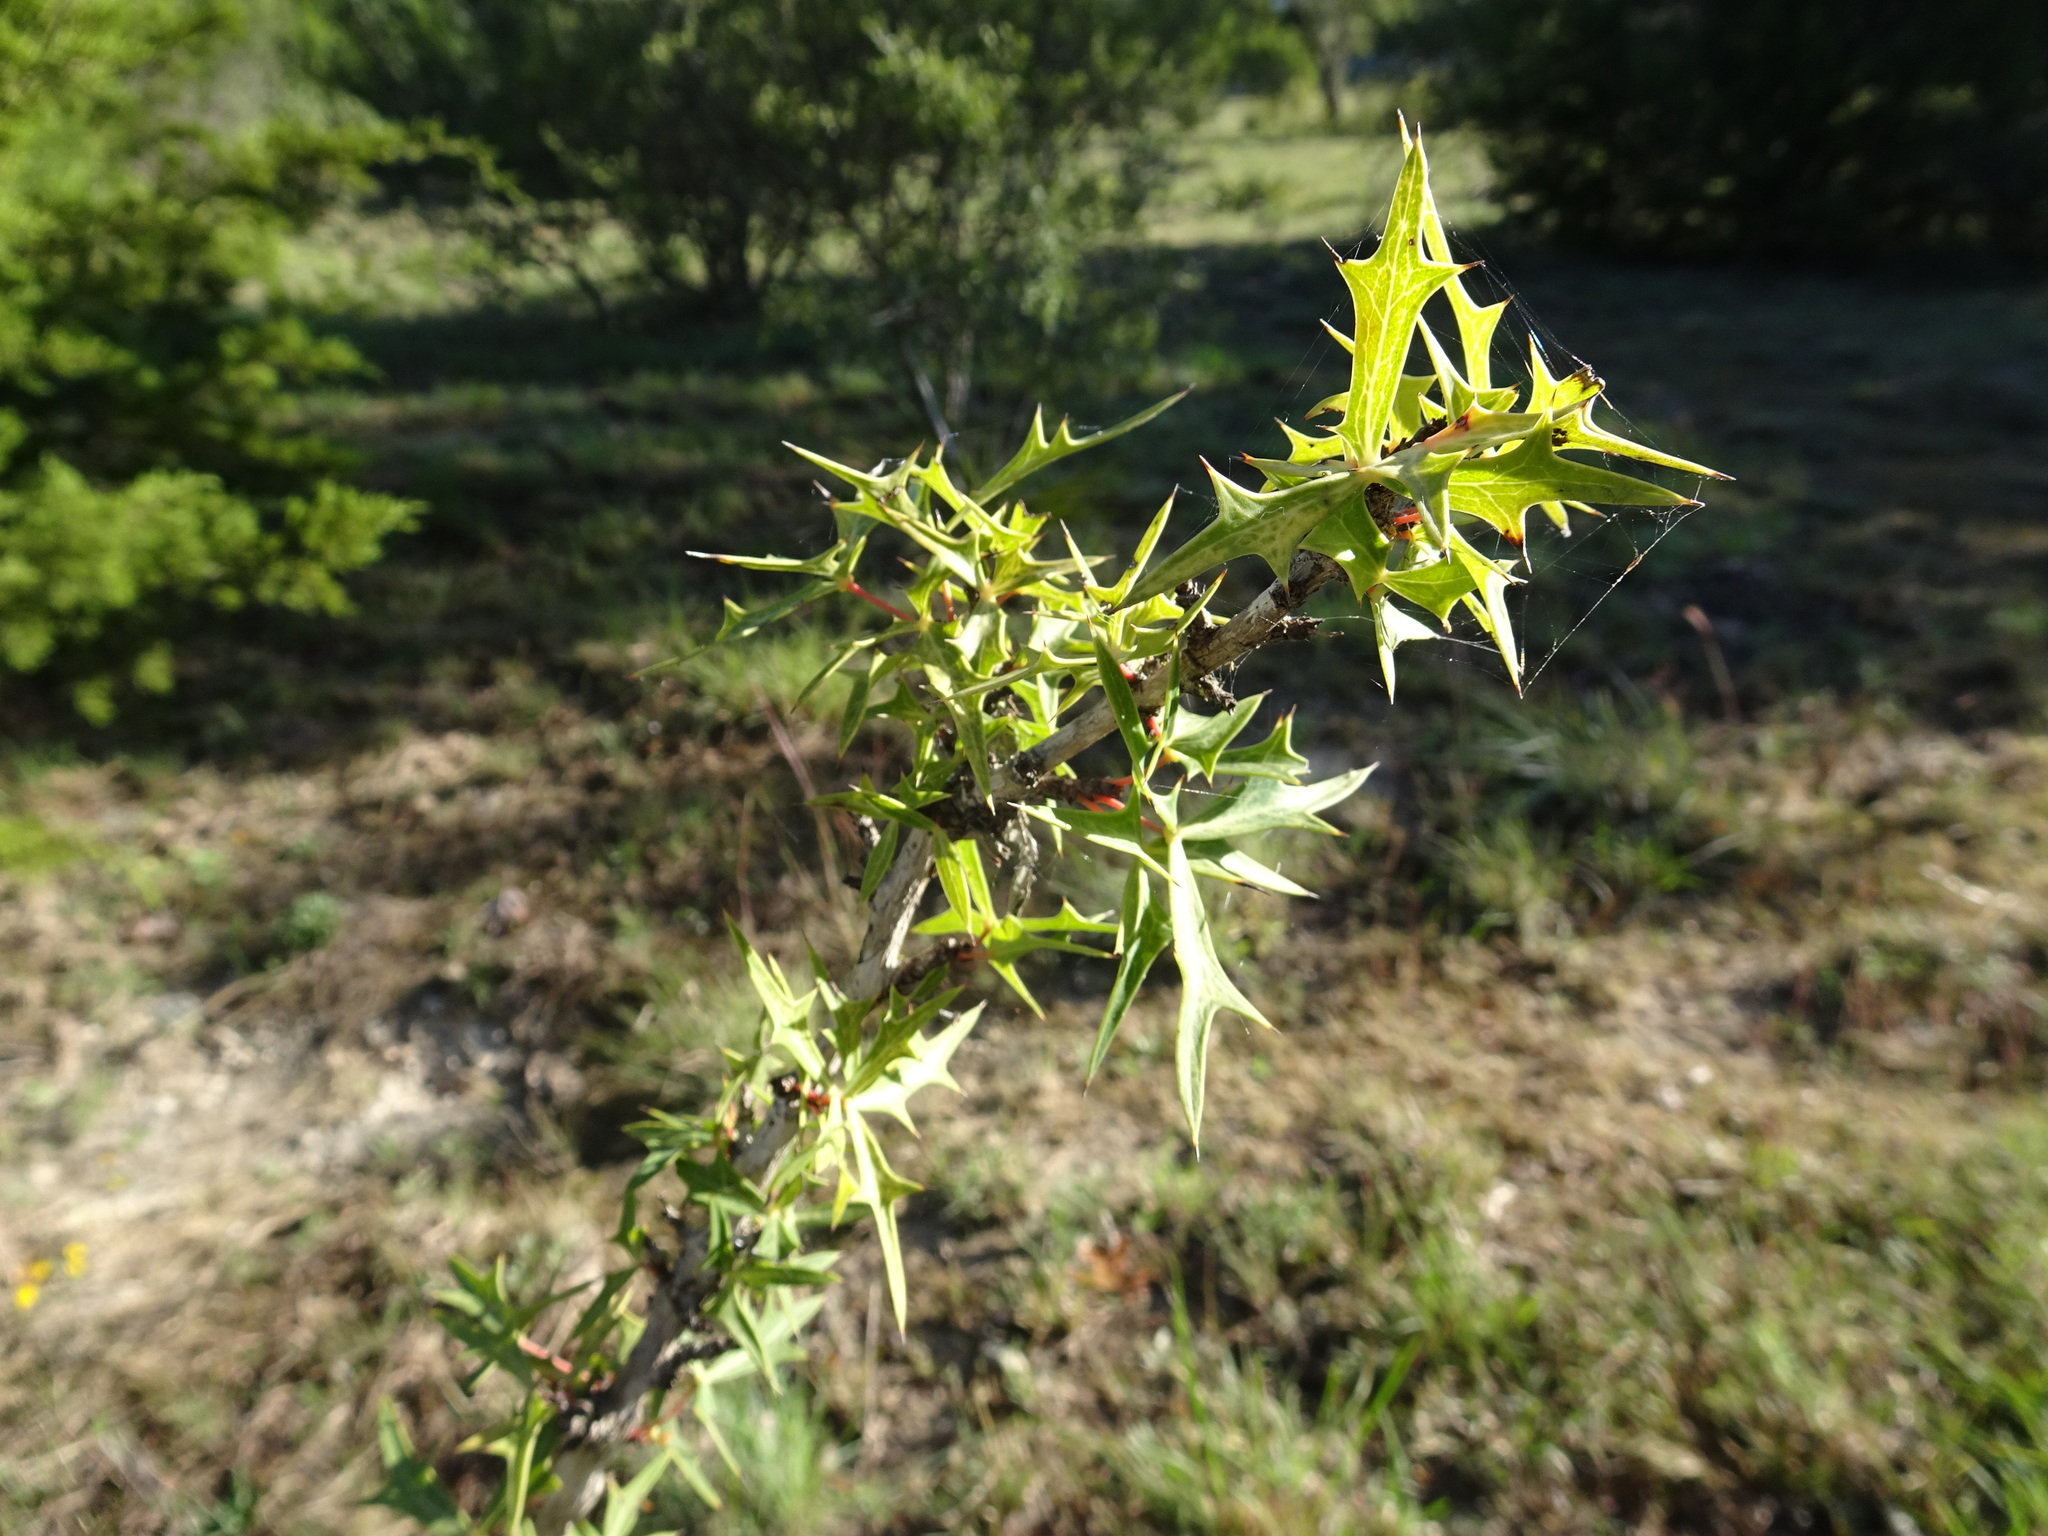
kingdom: Plantae
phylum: Tracheophyta
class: Magnoliopsida
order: Ranunculales
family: Berberidaceae
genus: Alloberberis
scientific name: Alloberberis trifoliolata
